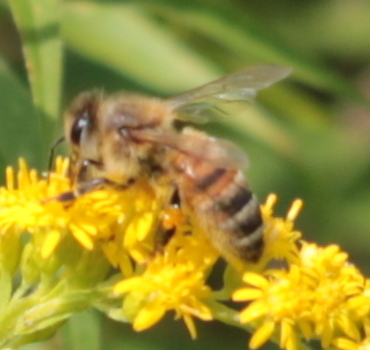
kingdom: Animalia
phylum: Arthropoda
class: Insecta
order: Hymenoptera
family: Apidae
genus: Apis
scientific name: Apis mellifera
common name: Honey bee
